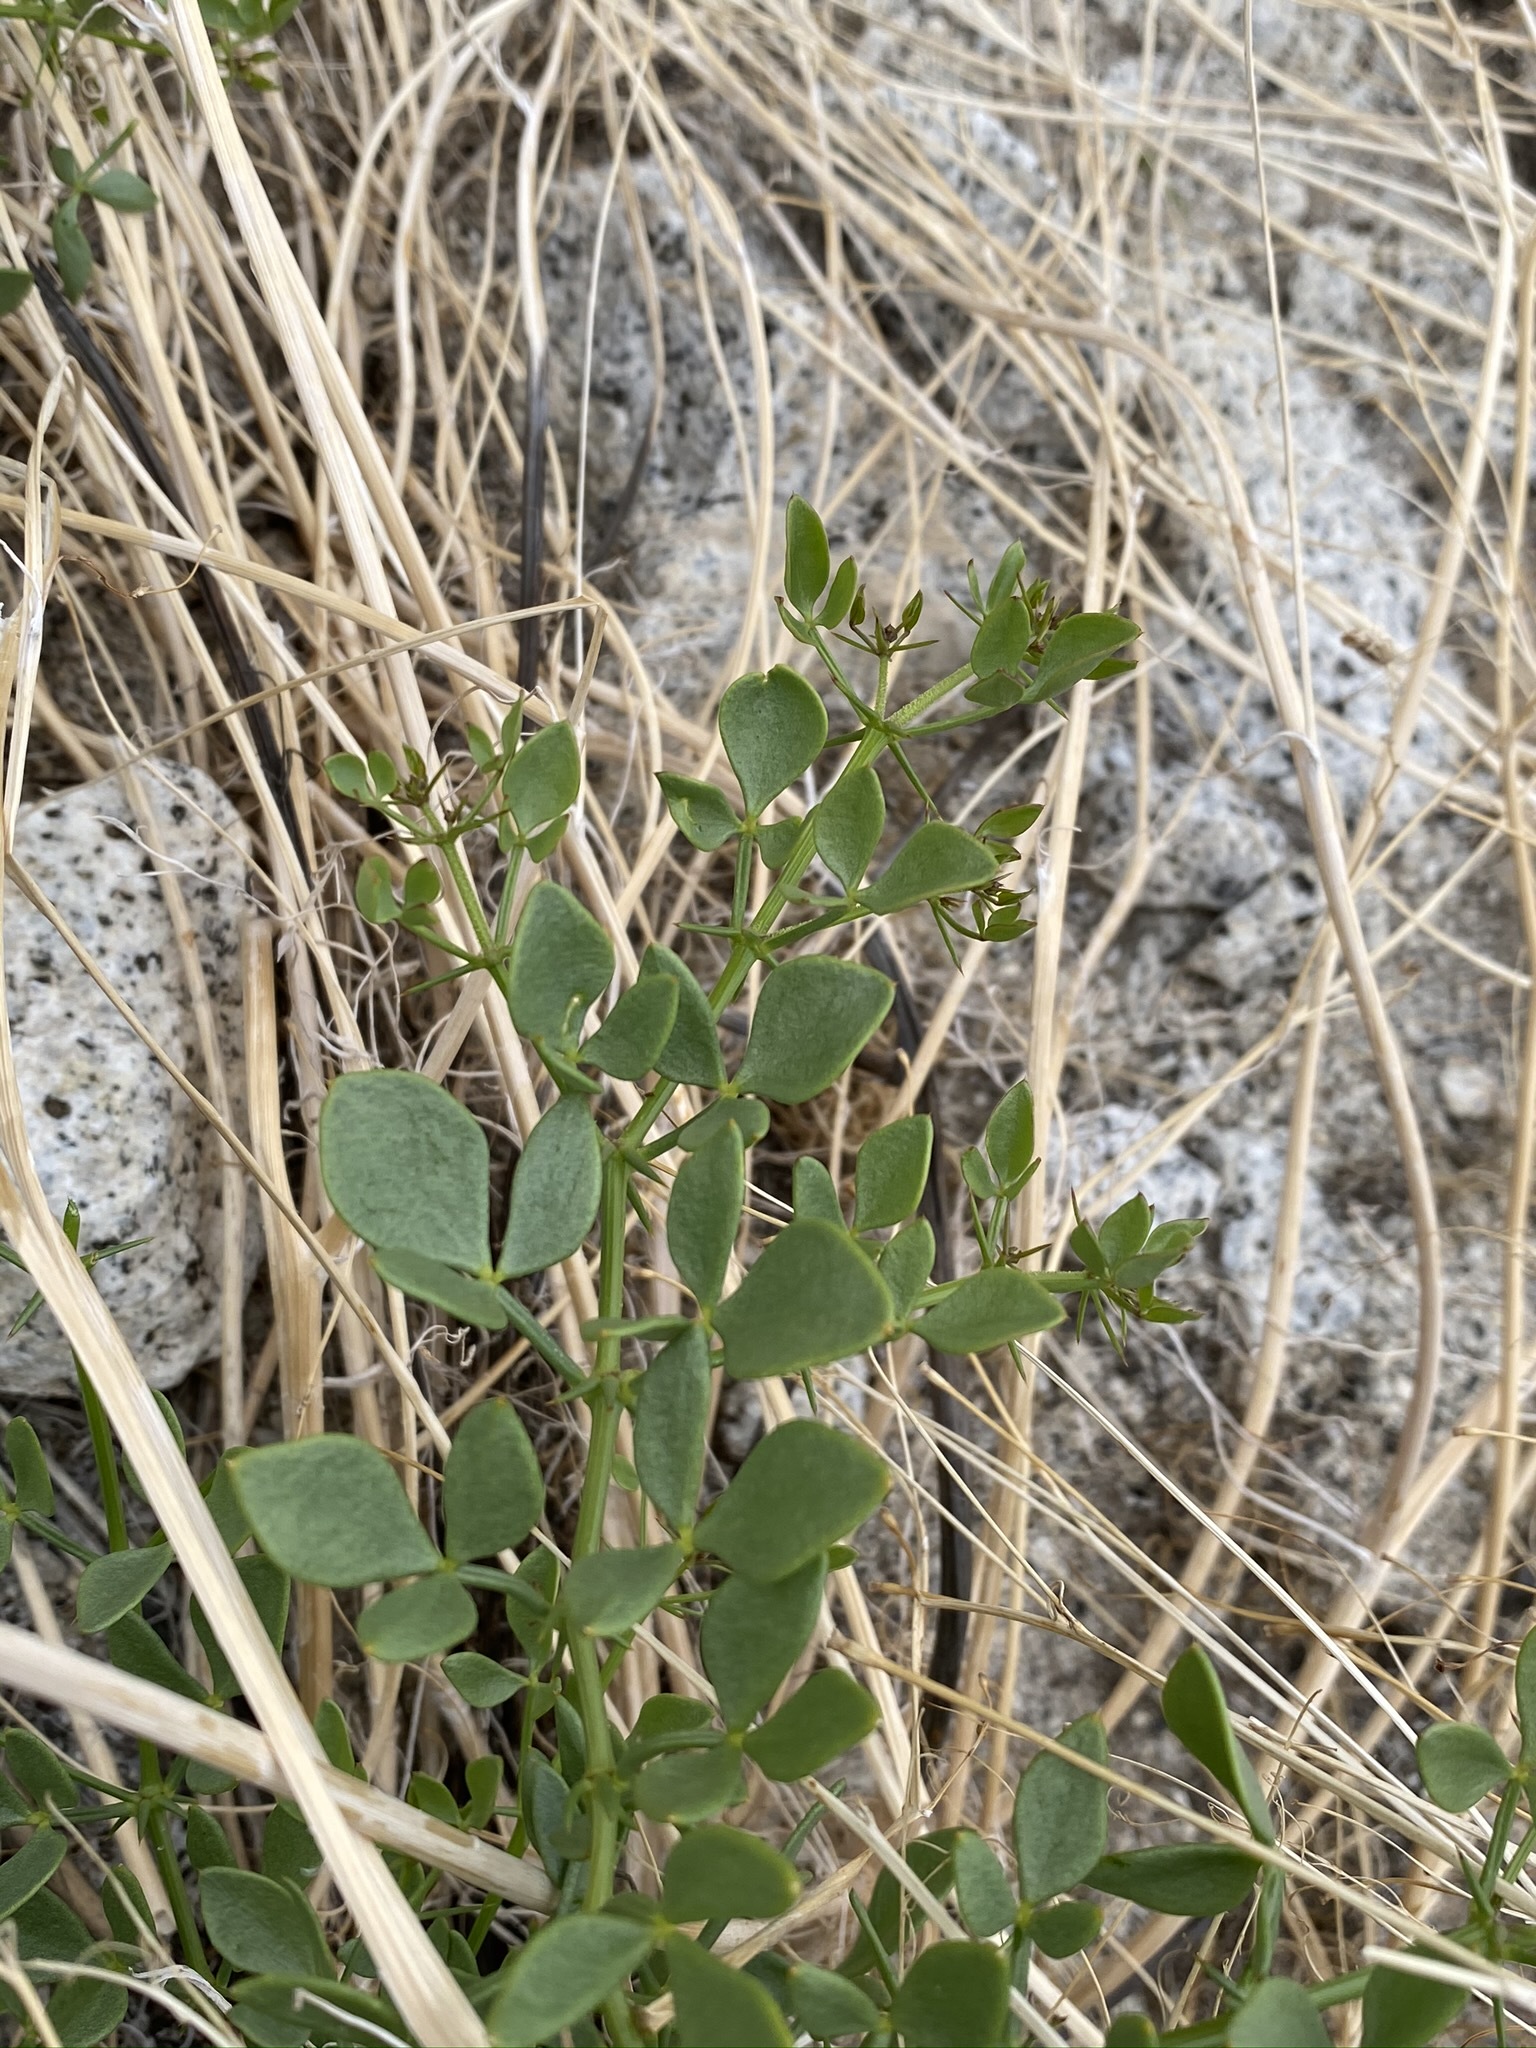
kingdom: Plantae
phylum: Tracheophyta
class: Magnoliopsida
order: Zygophyllales
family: Zygophyllaceae
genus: Fagonia
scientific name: Fagonia pachyacantha
